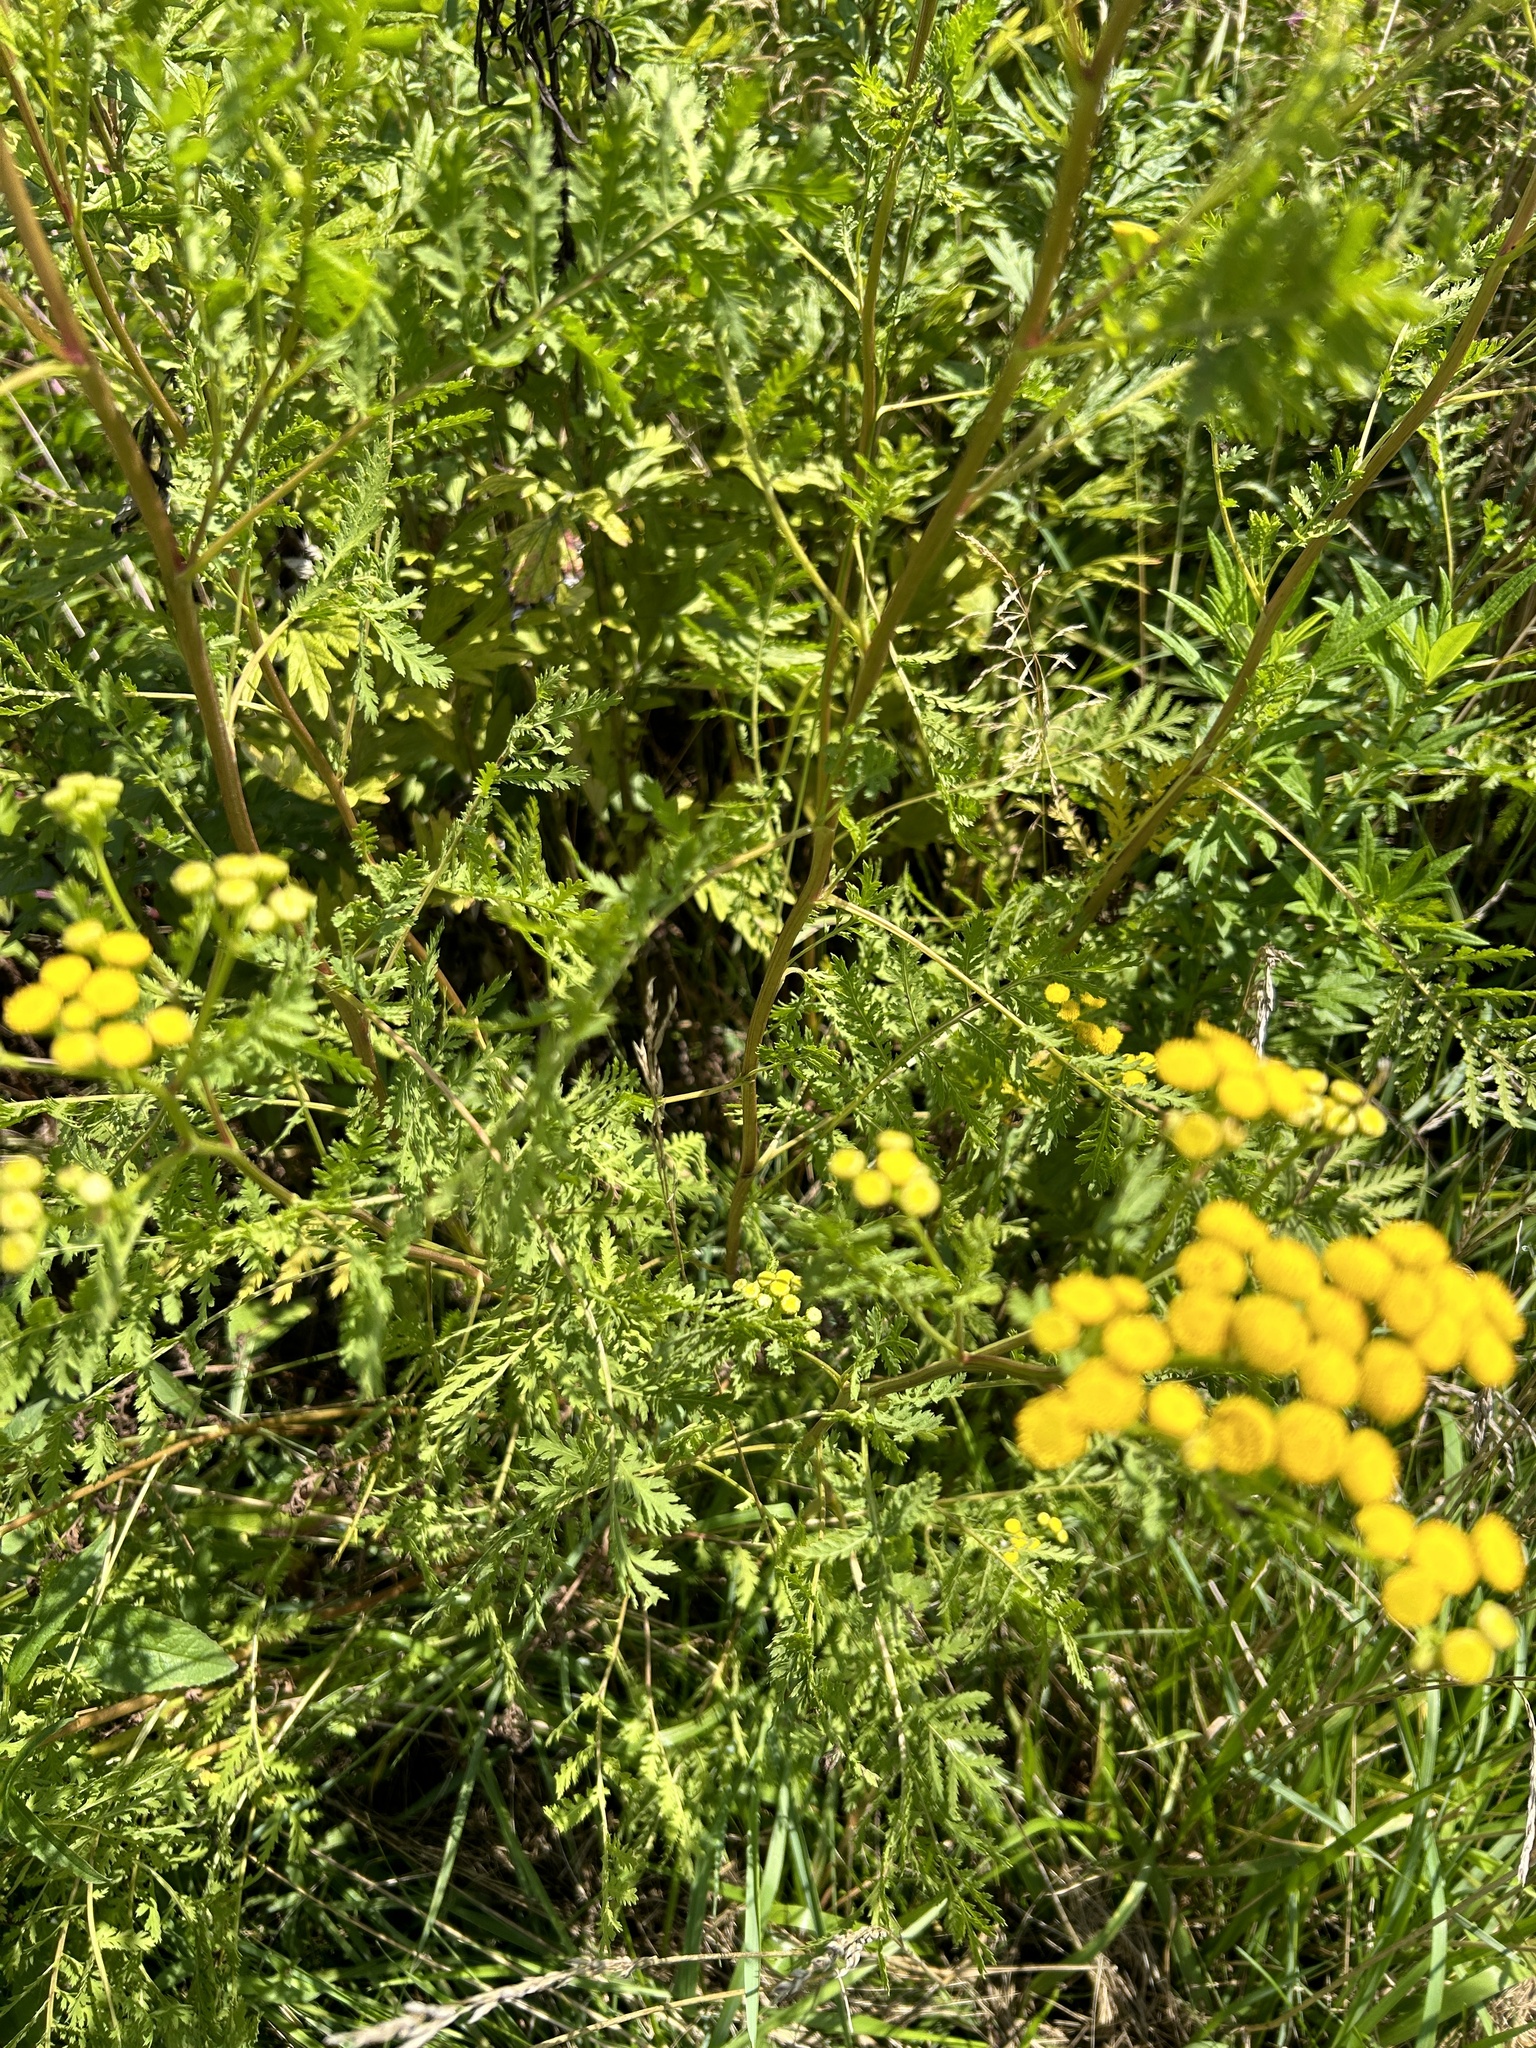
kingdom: Plantae
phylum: Tracheophyta
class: Magnoliopsida
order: Asterales
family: Asteraceae
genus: Tanacetum
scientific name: Tanacetum vulgare
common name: Common tansy
